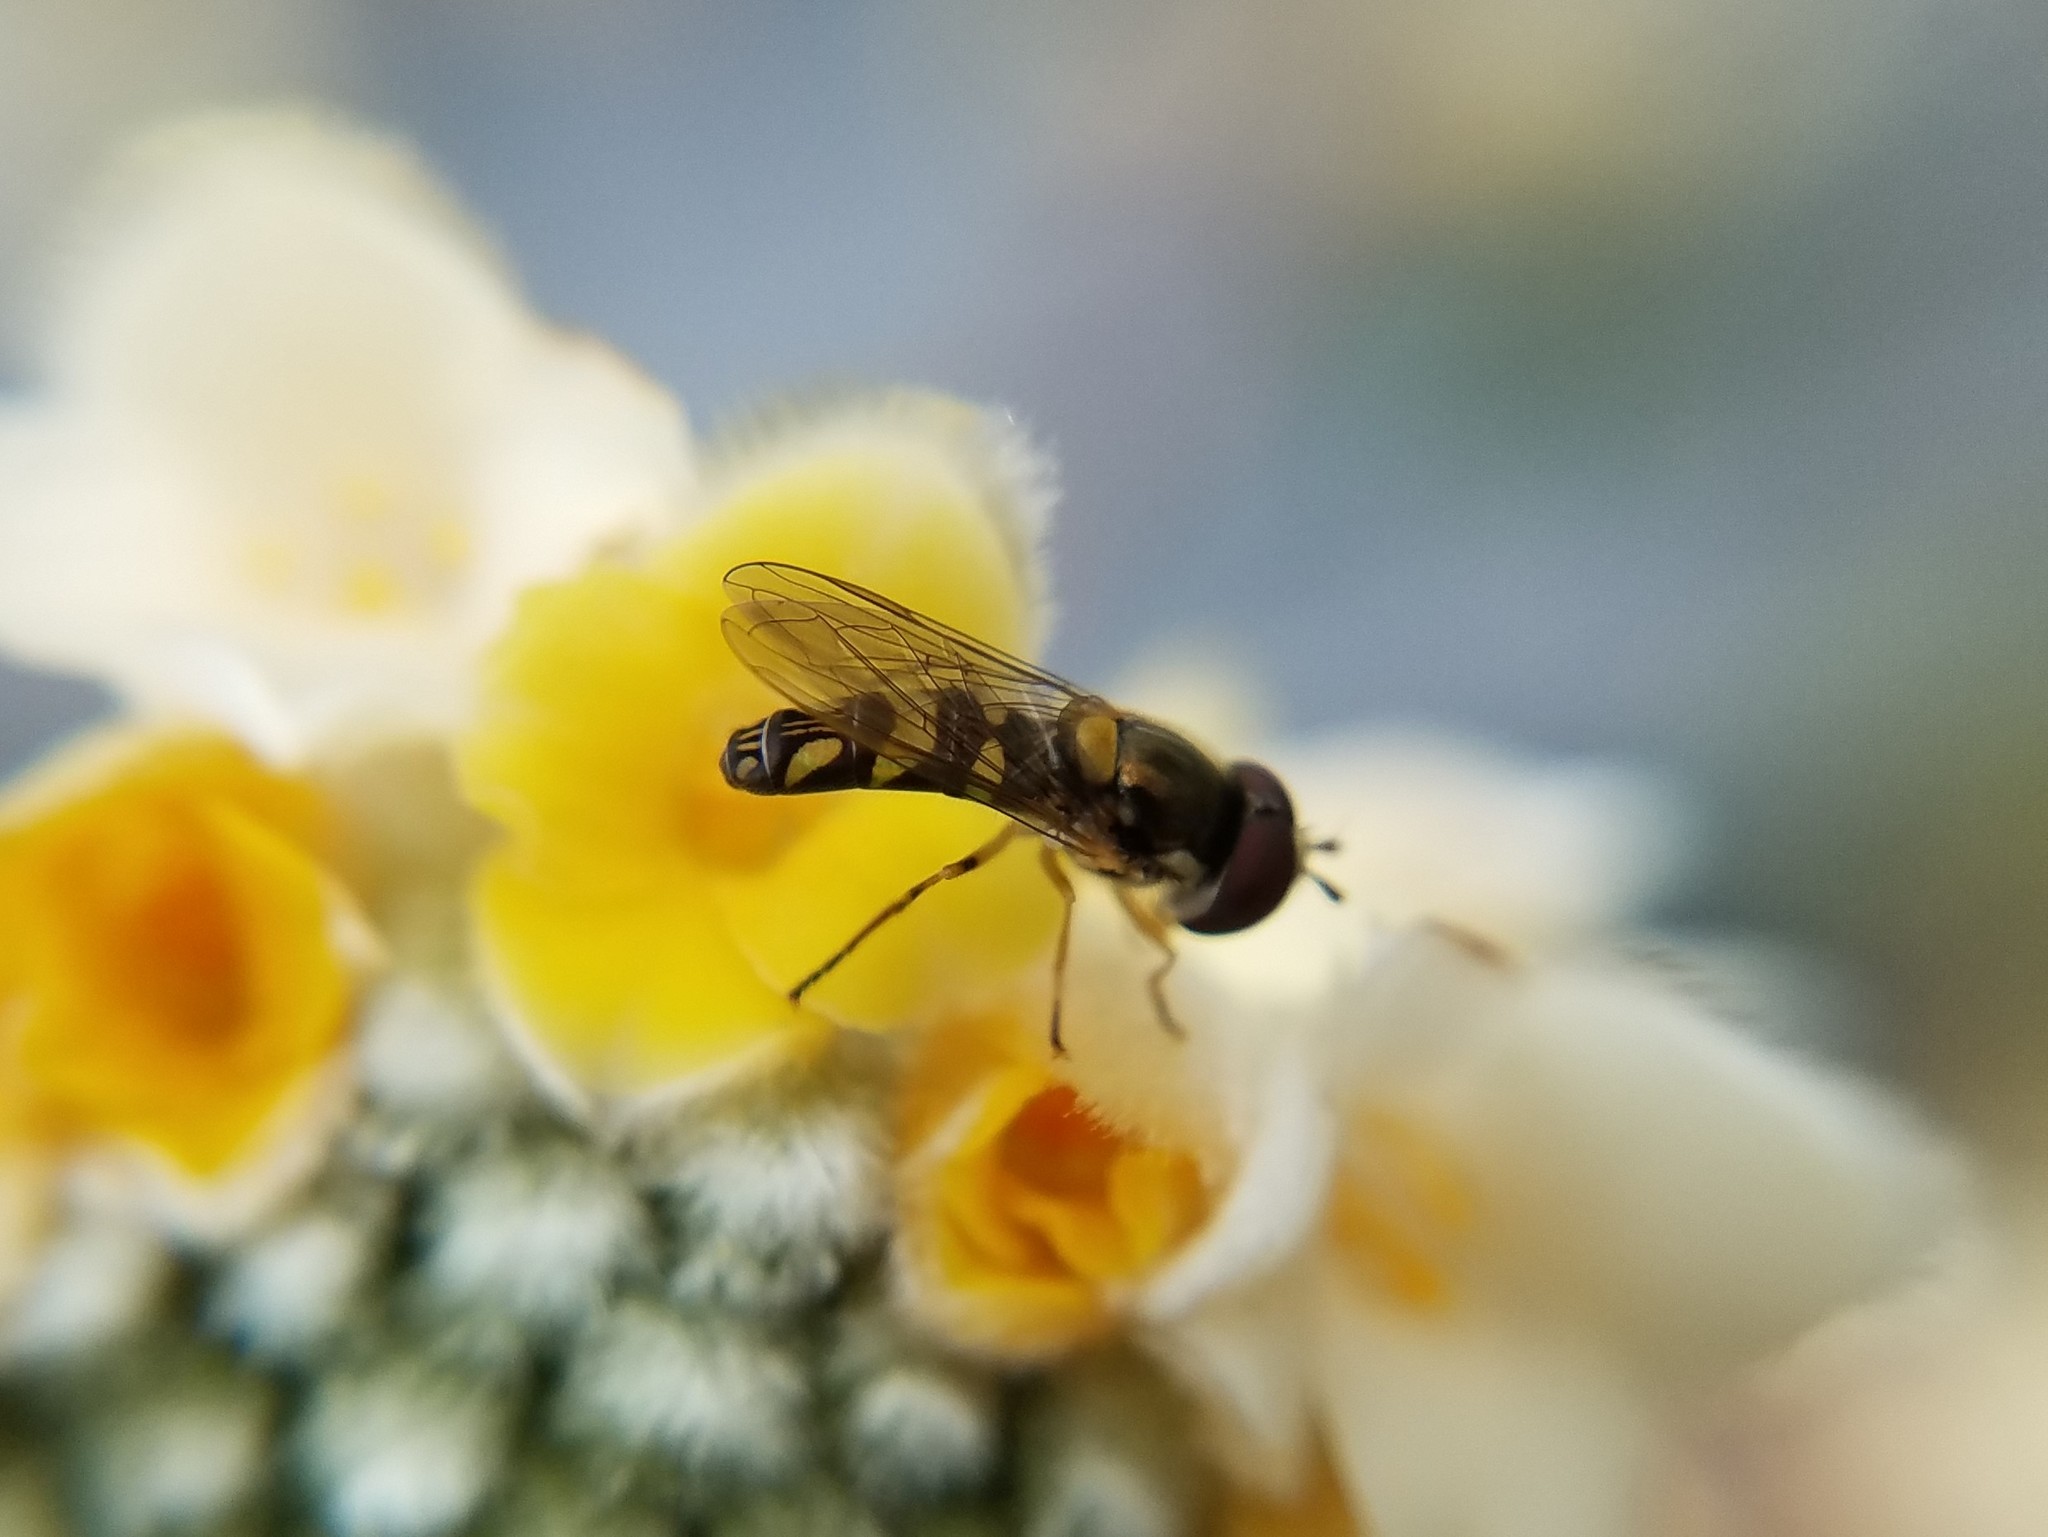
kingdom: Animalia
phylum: Arthropoda
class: Insecta
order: Diptera
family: Syrphidae
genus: Allograpta
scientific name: Allograpta exotica
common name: Syrphid fly
